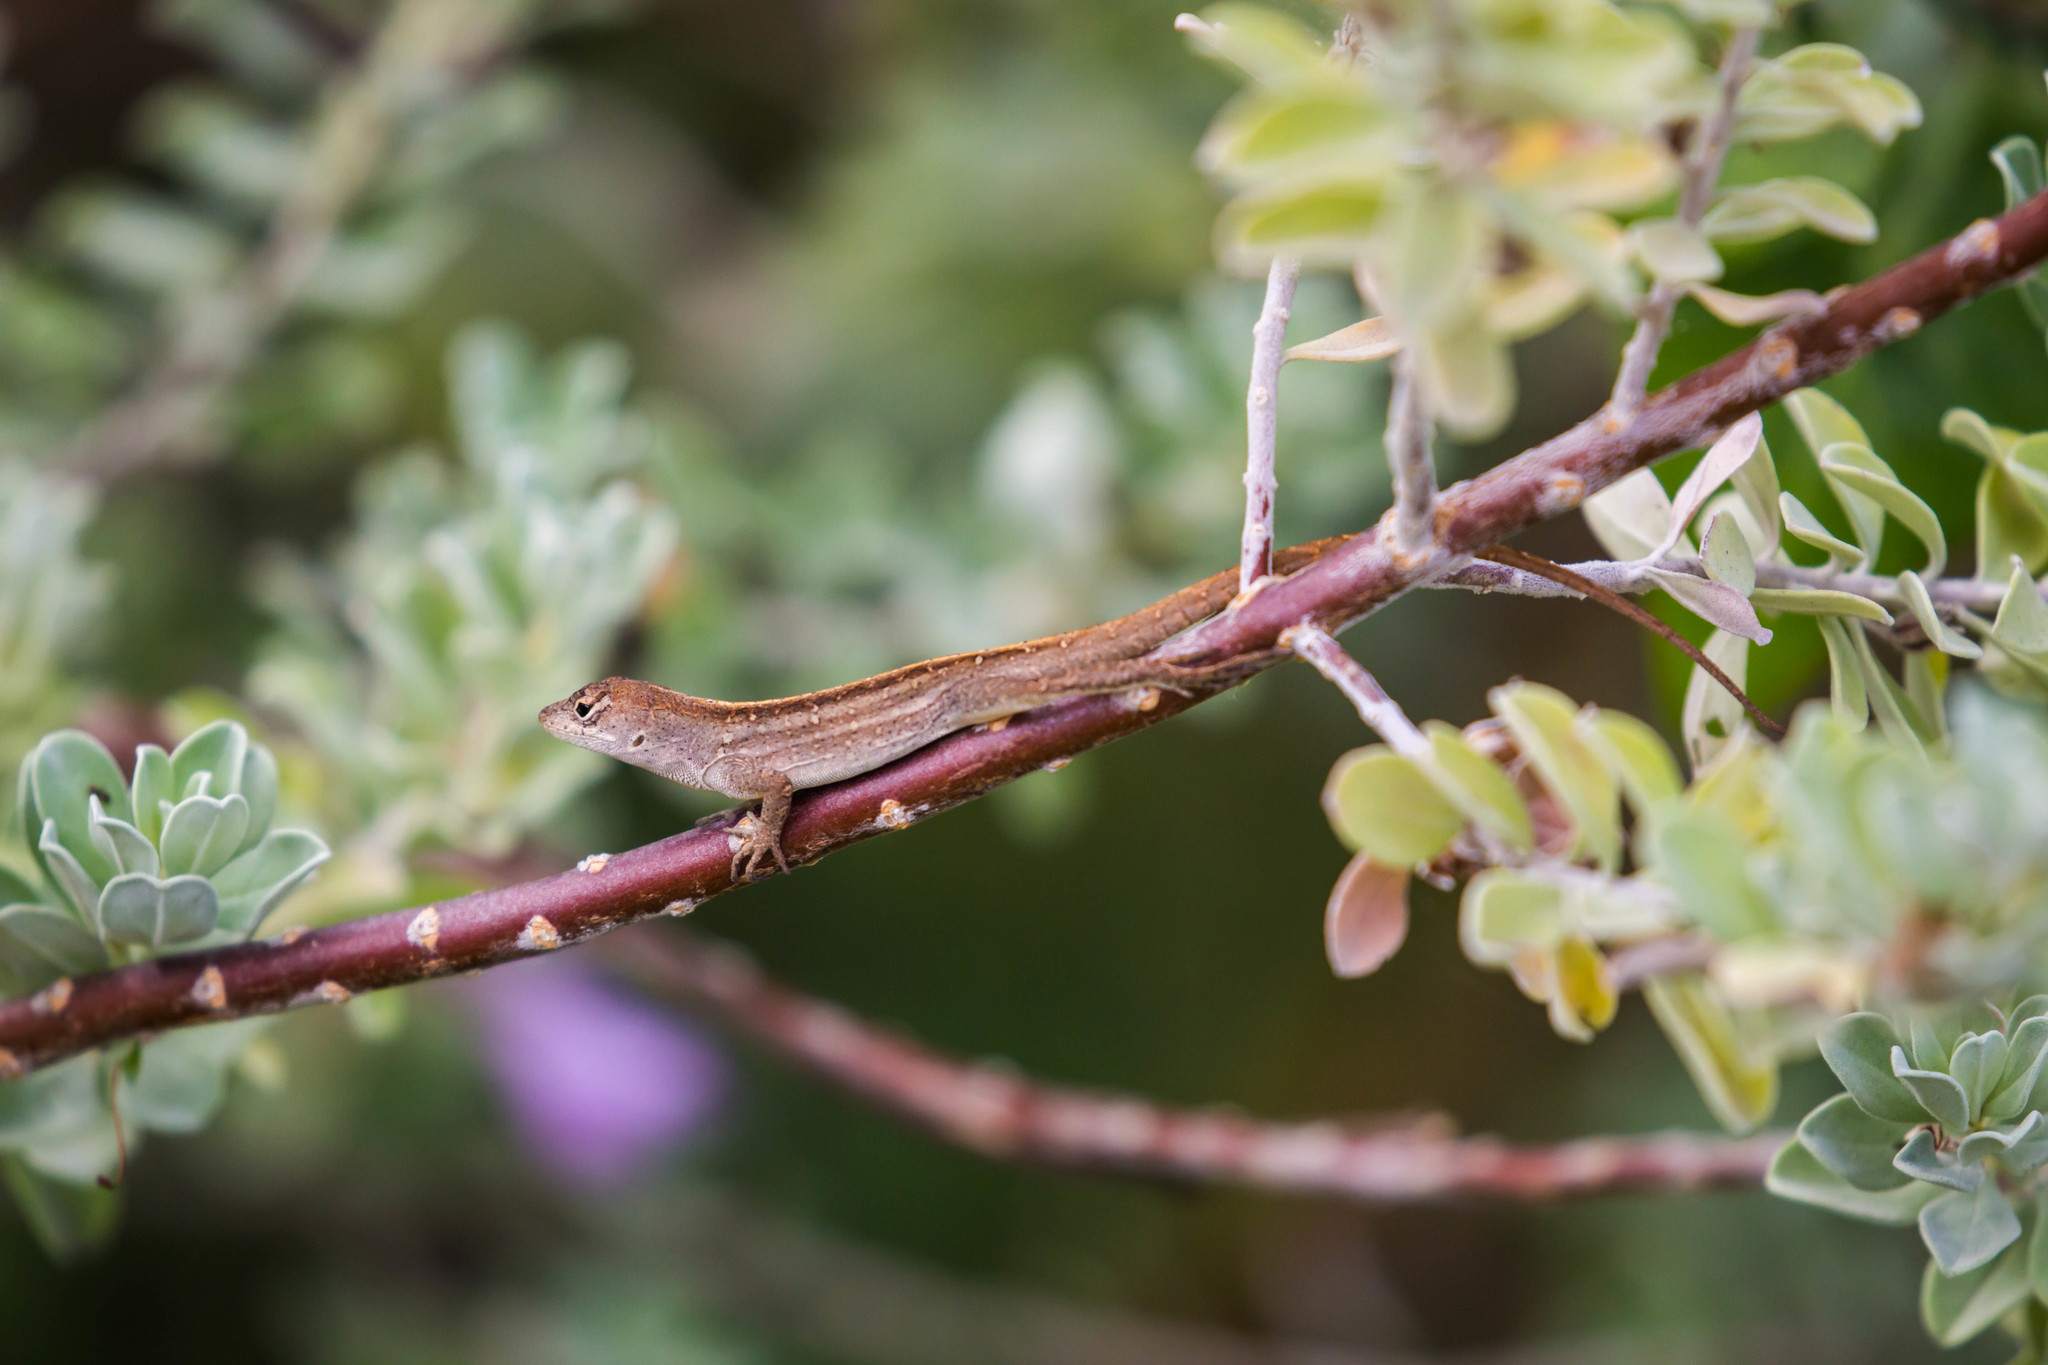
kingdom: Animalia
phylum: Chordata
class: Squamata
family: Dactyloidae
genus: Anolis
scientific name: Anolis sagrei
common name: Brown anole
